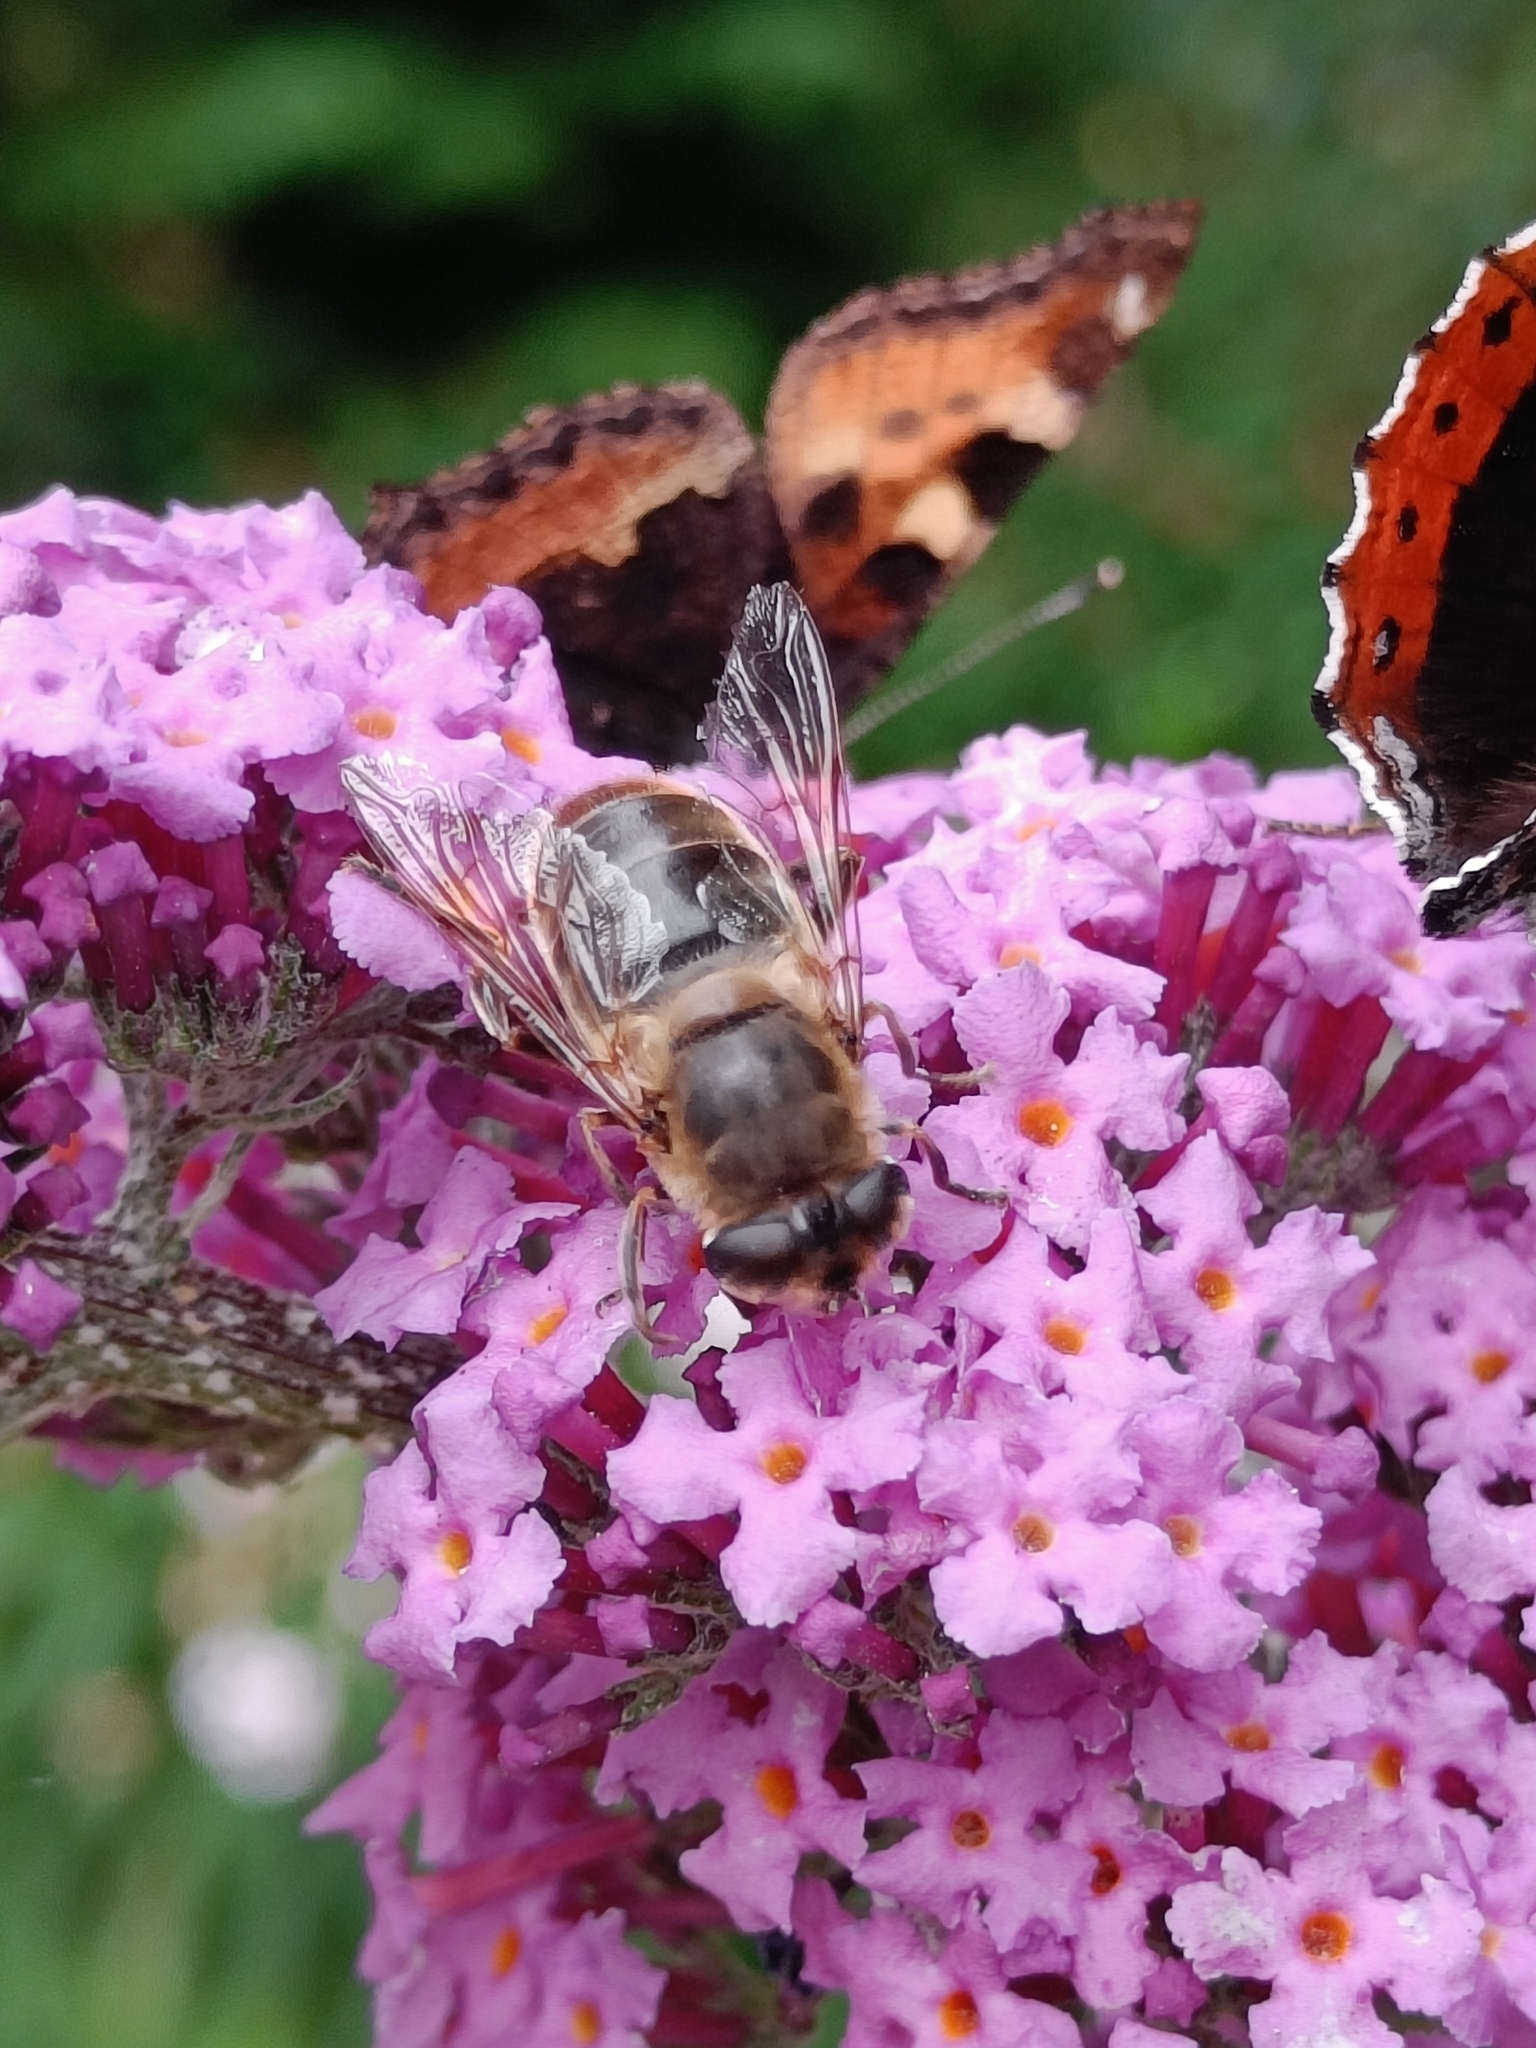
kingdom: Animalia
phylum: Arthropoda
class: Insecta
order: Diptera
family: Syrphidae
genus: Eristalis
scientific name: Eristalis tenax
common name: Drone fly
